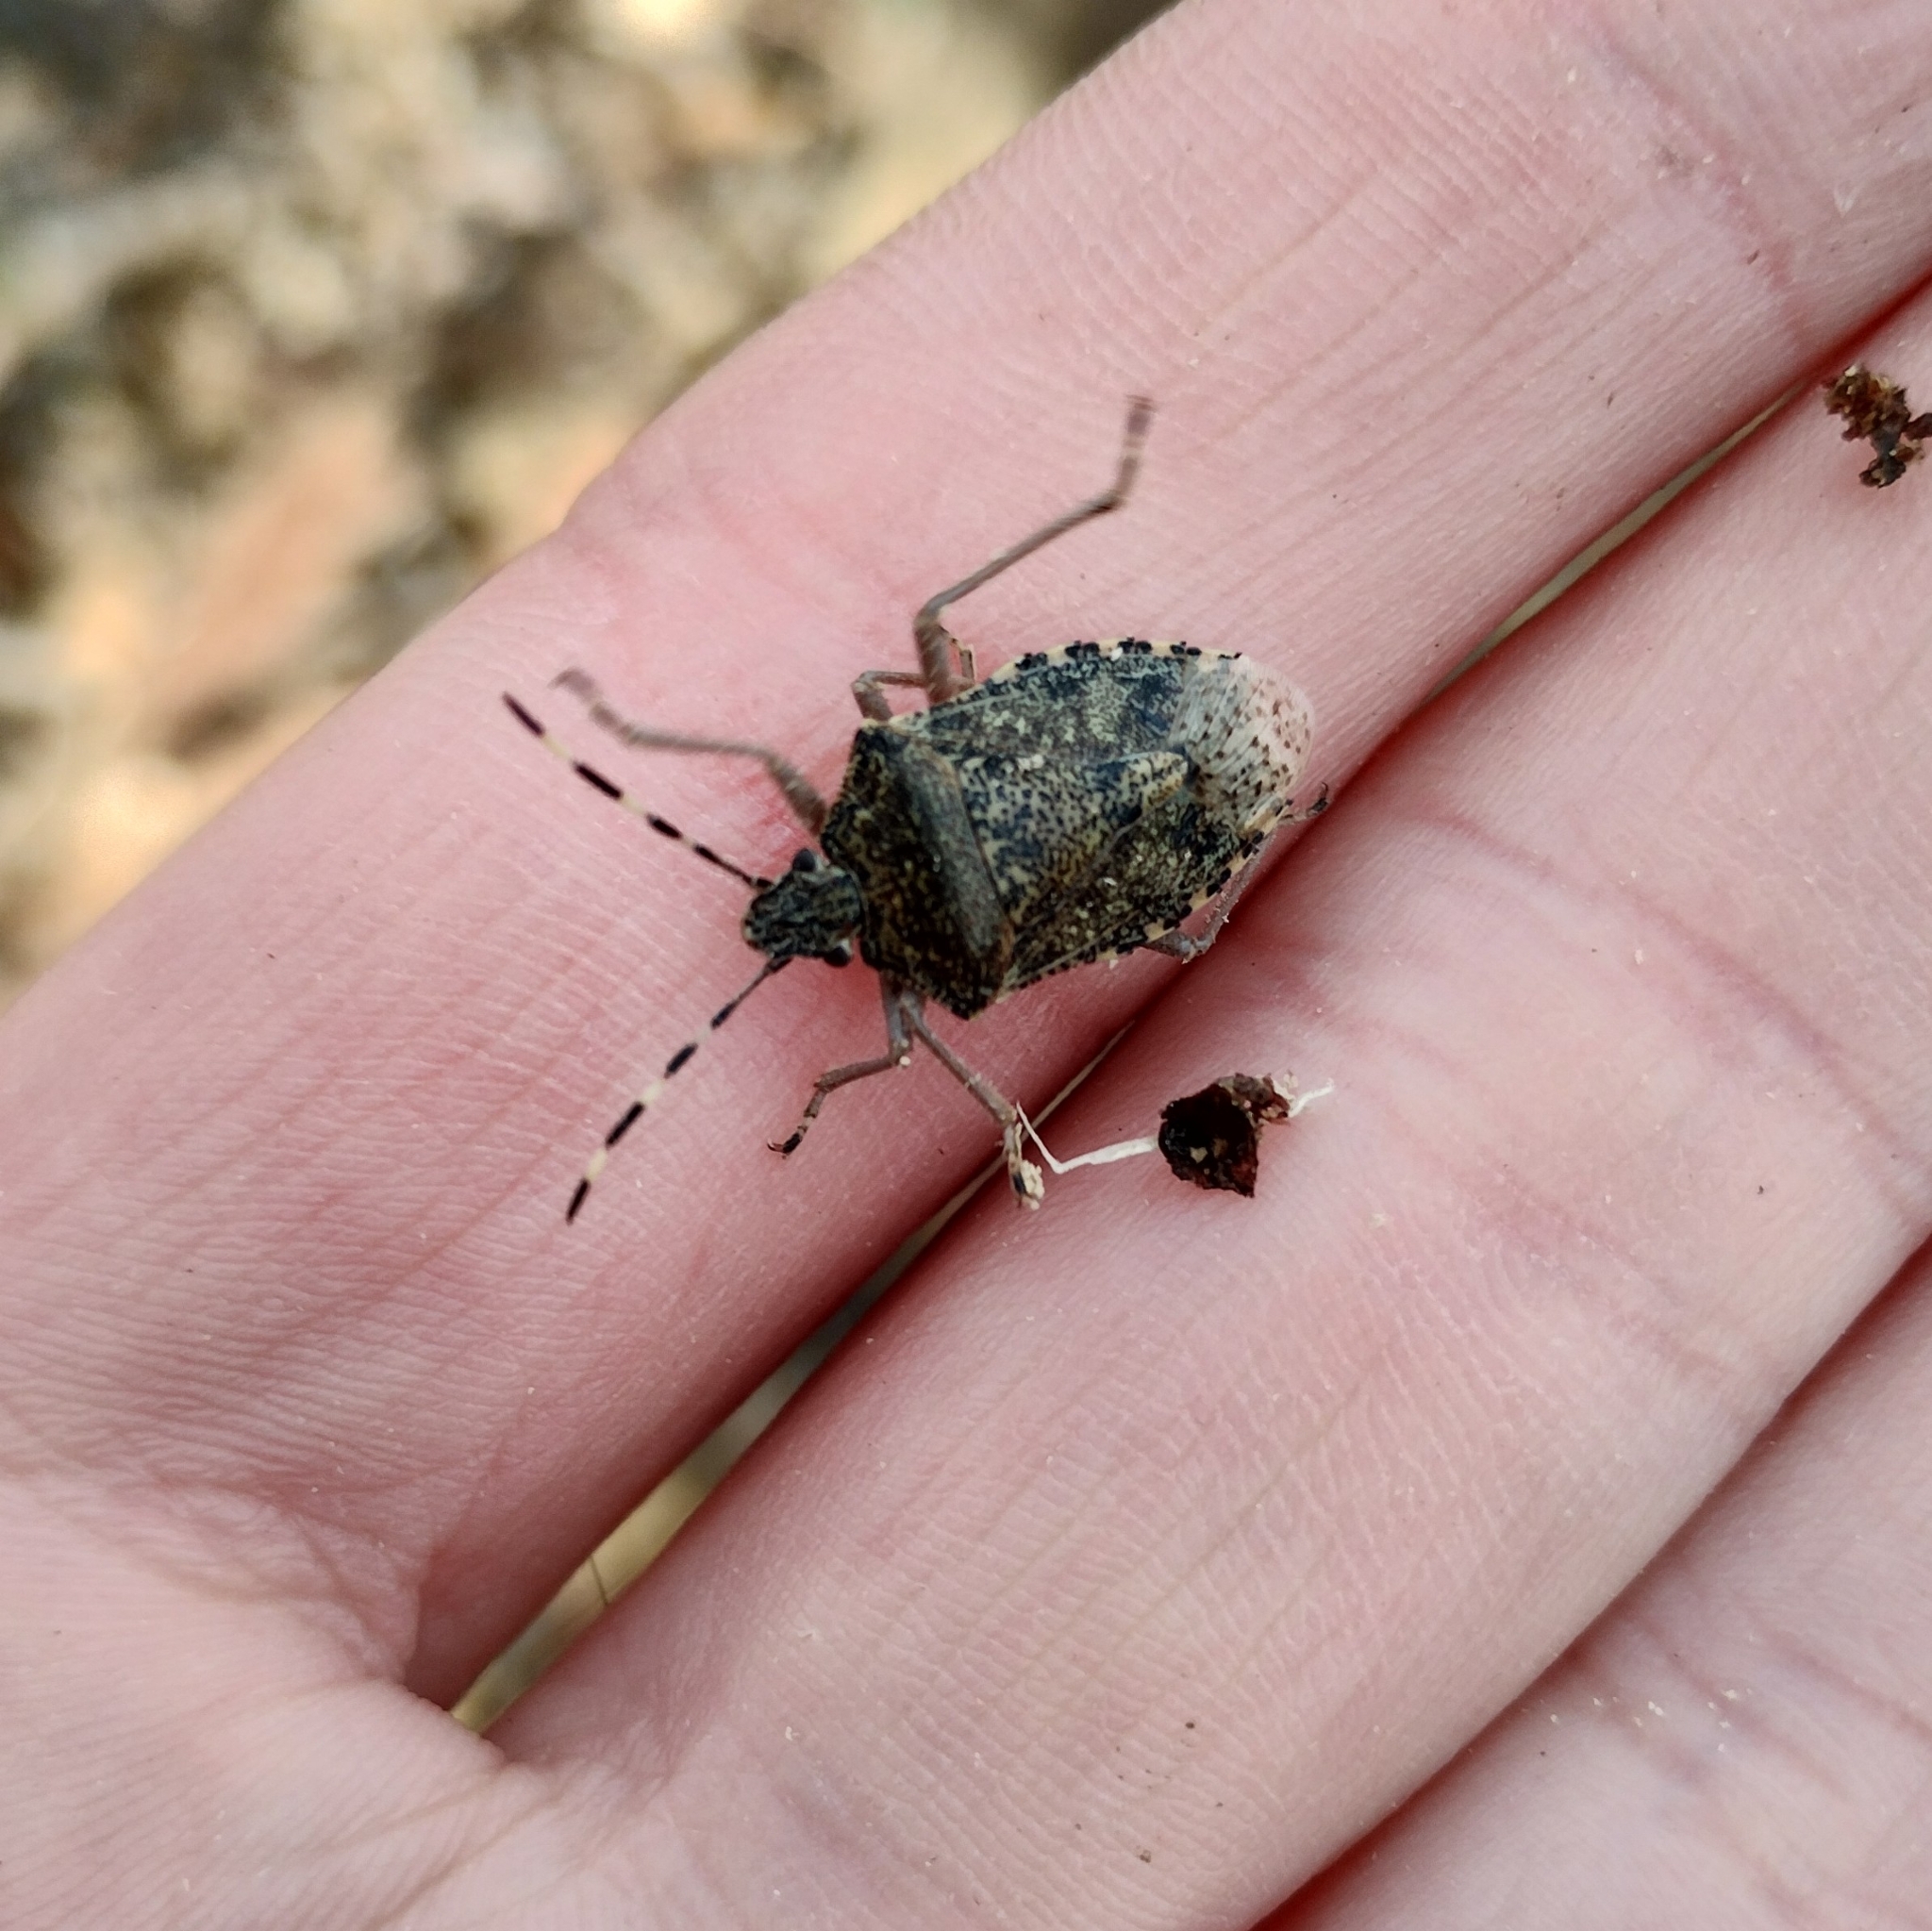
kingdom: Animalia
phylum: Arthropoda
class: Insecta
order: Hemiptera
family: Pentatomidae
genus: Rhaphigaster
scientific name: Rhaphigaster nebulosa
